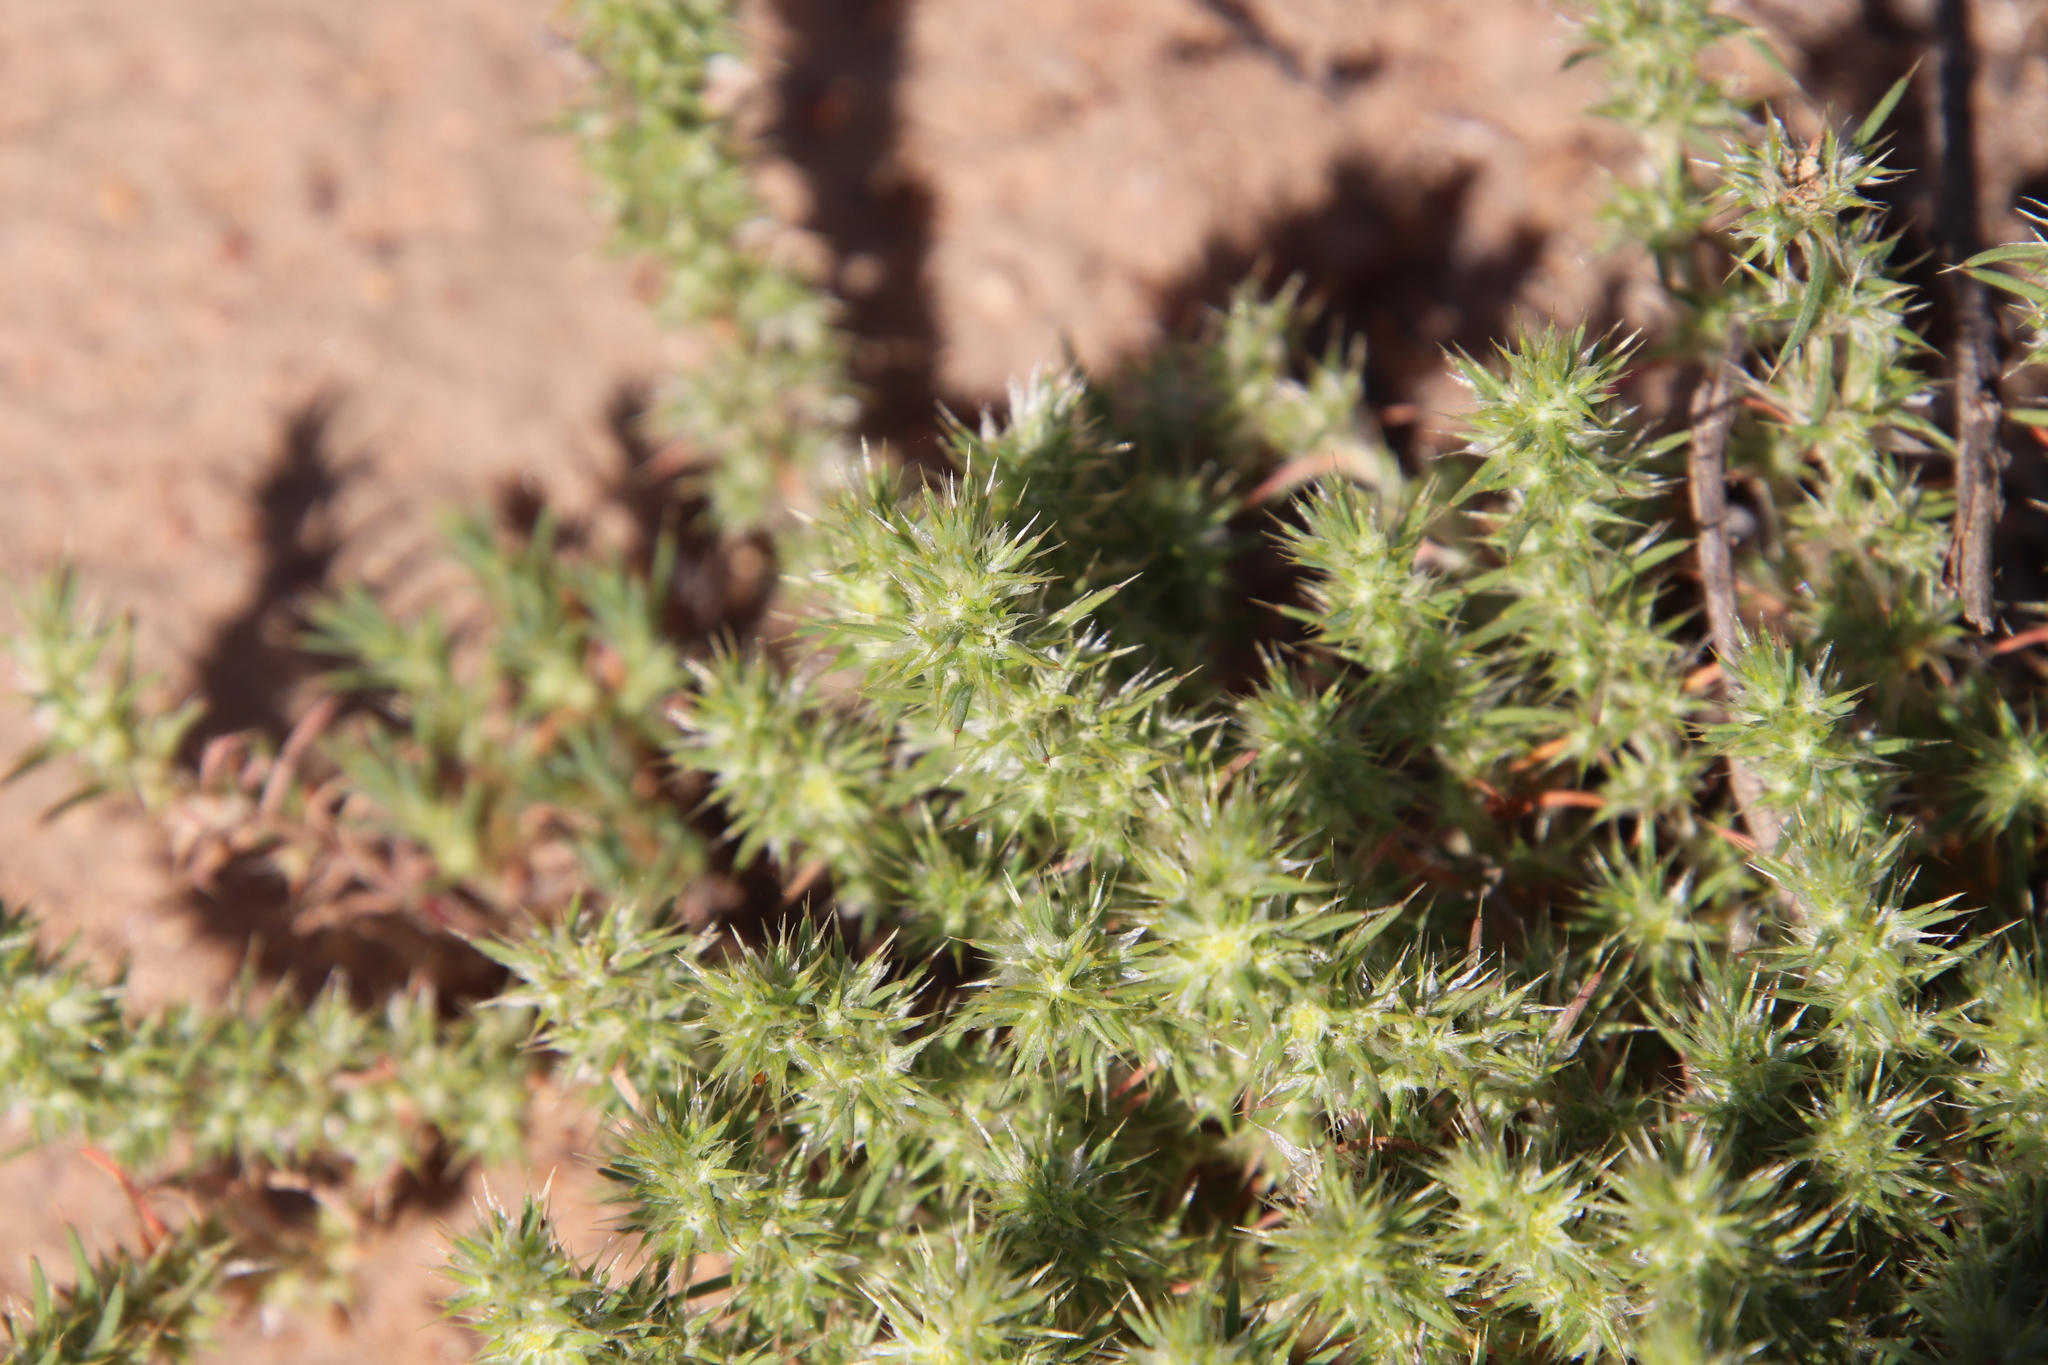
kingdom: Plantae
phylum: Tracheophyta
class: Magnoliopsida
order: Caryophyllales
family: Caryophyllaceae
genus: Cardionema
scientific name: Cardionema ramosissima
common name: Sandcarpet
